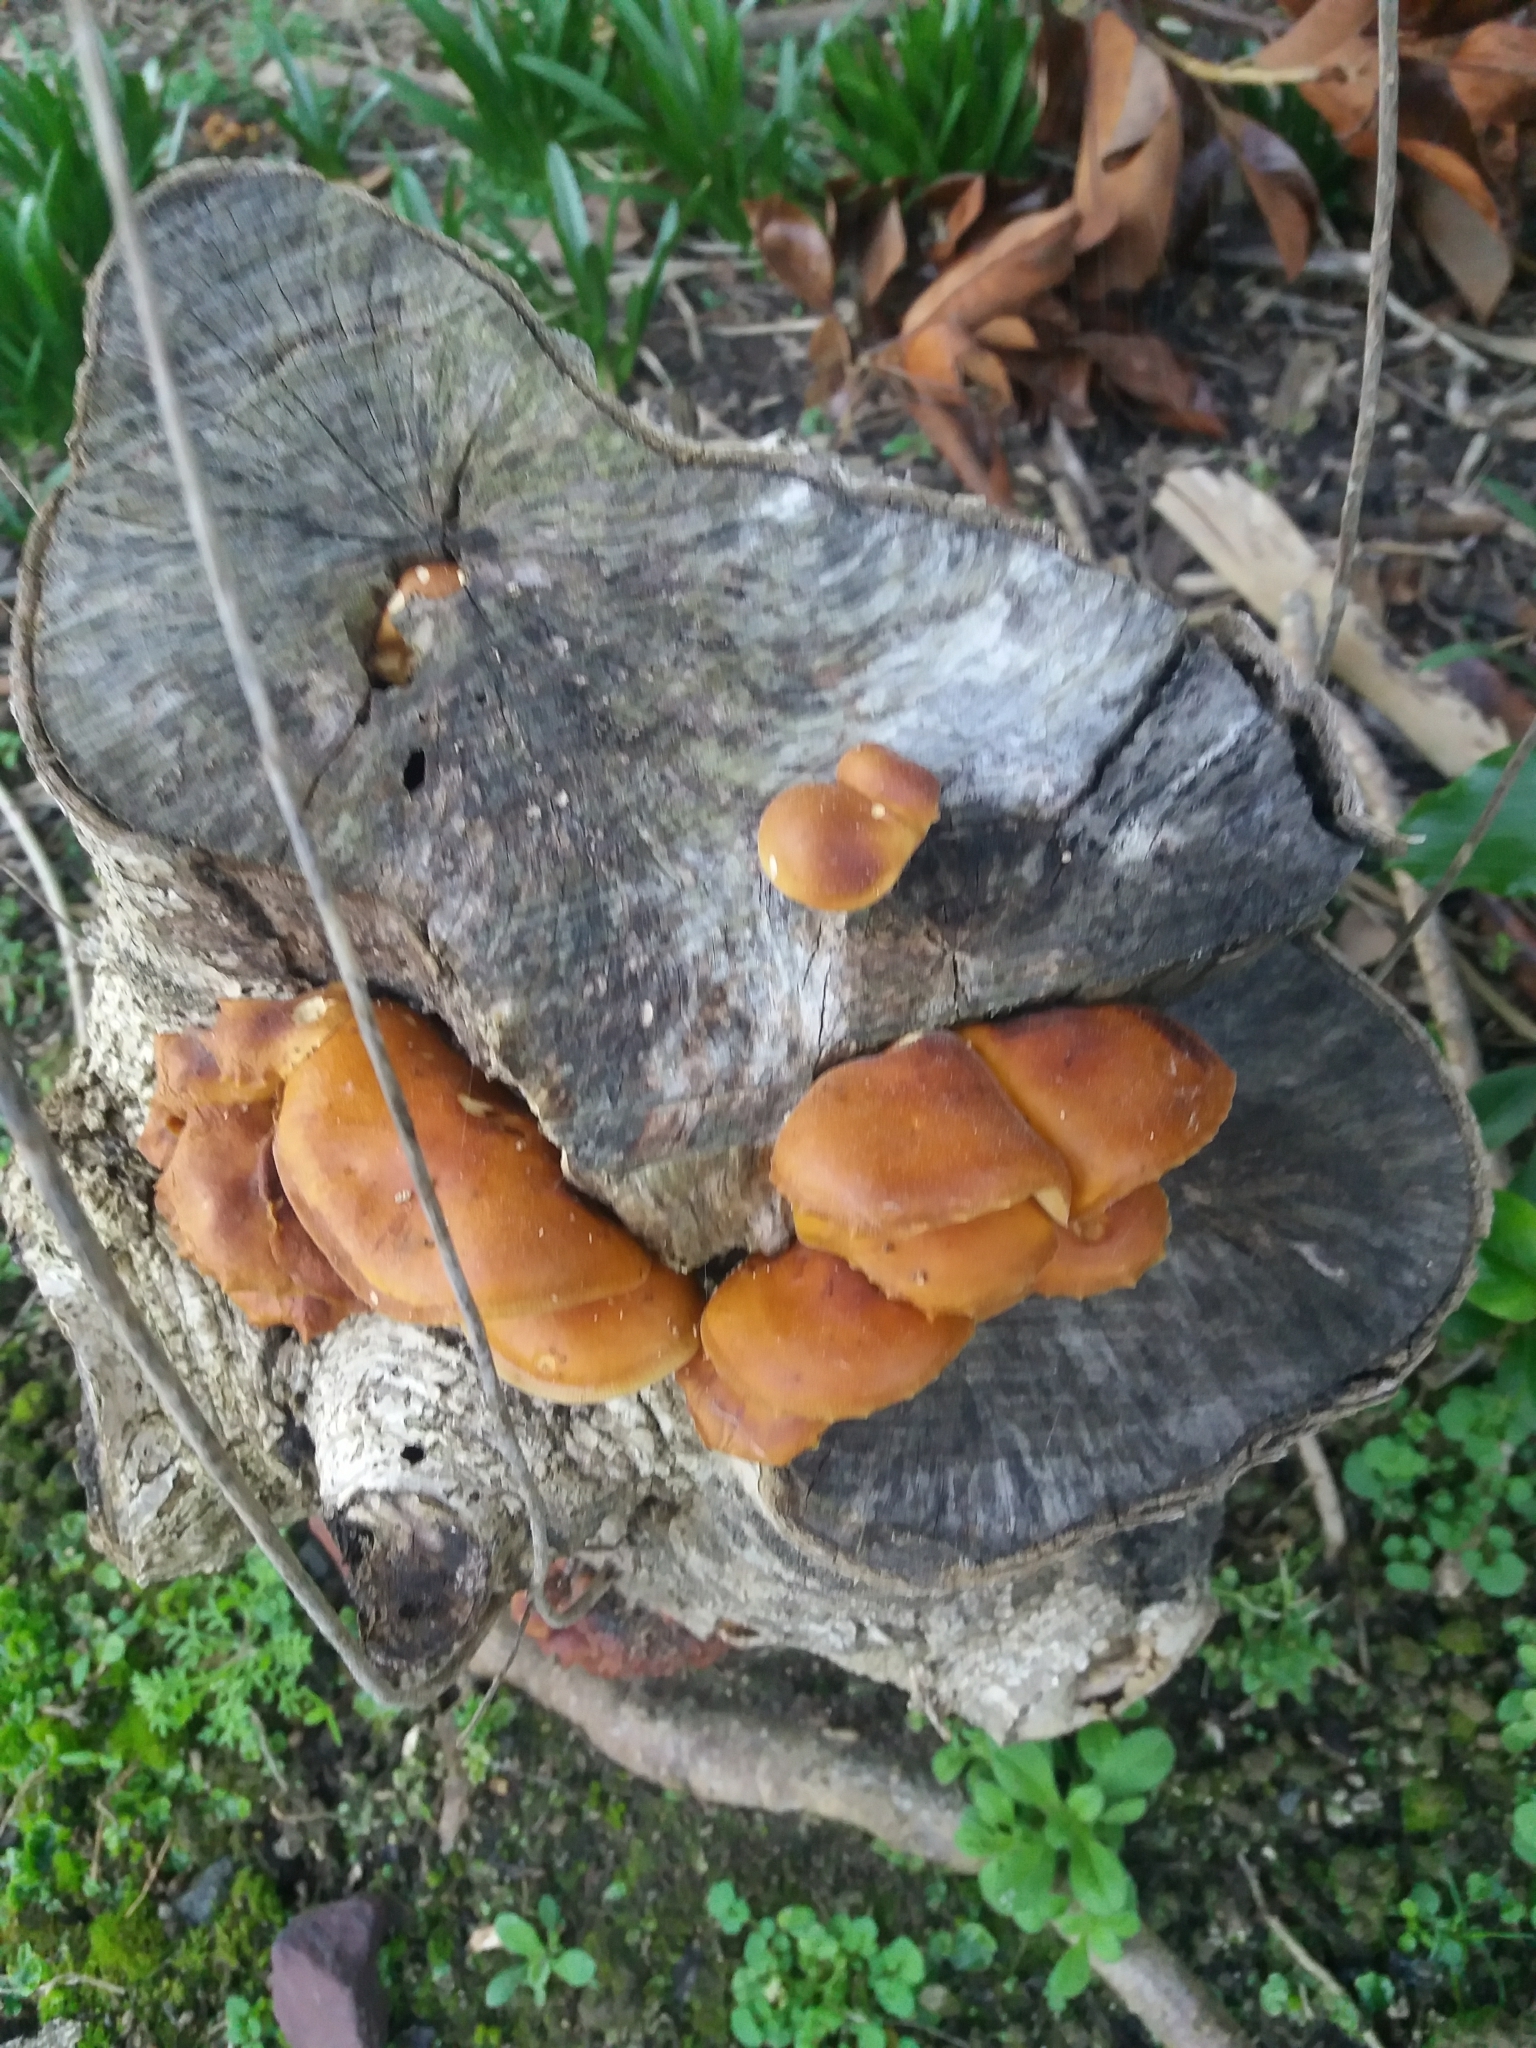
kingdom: Fungi
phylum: Basidiomycota
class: Agaricomycetes
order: Agaricales
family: Physalacriaceae
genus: Flammulina
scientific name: Flammulina velutipes
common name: Velvet shank
